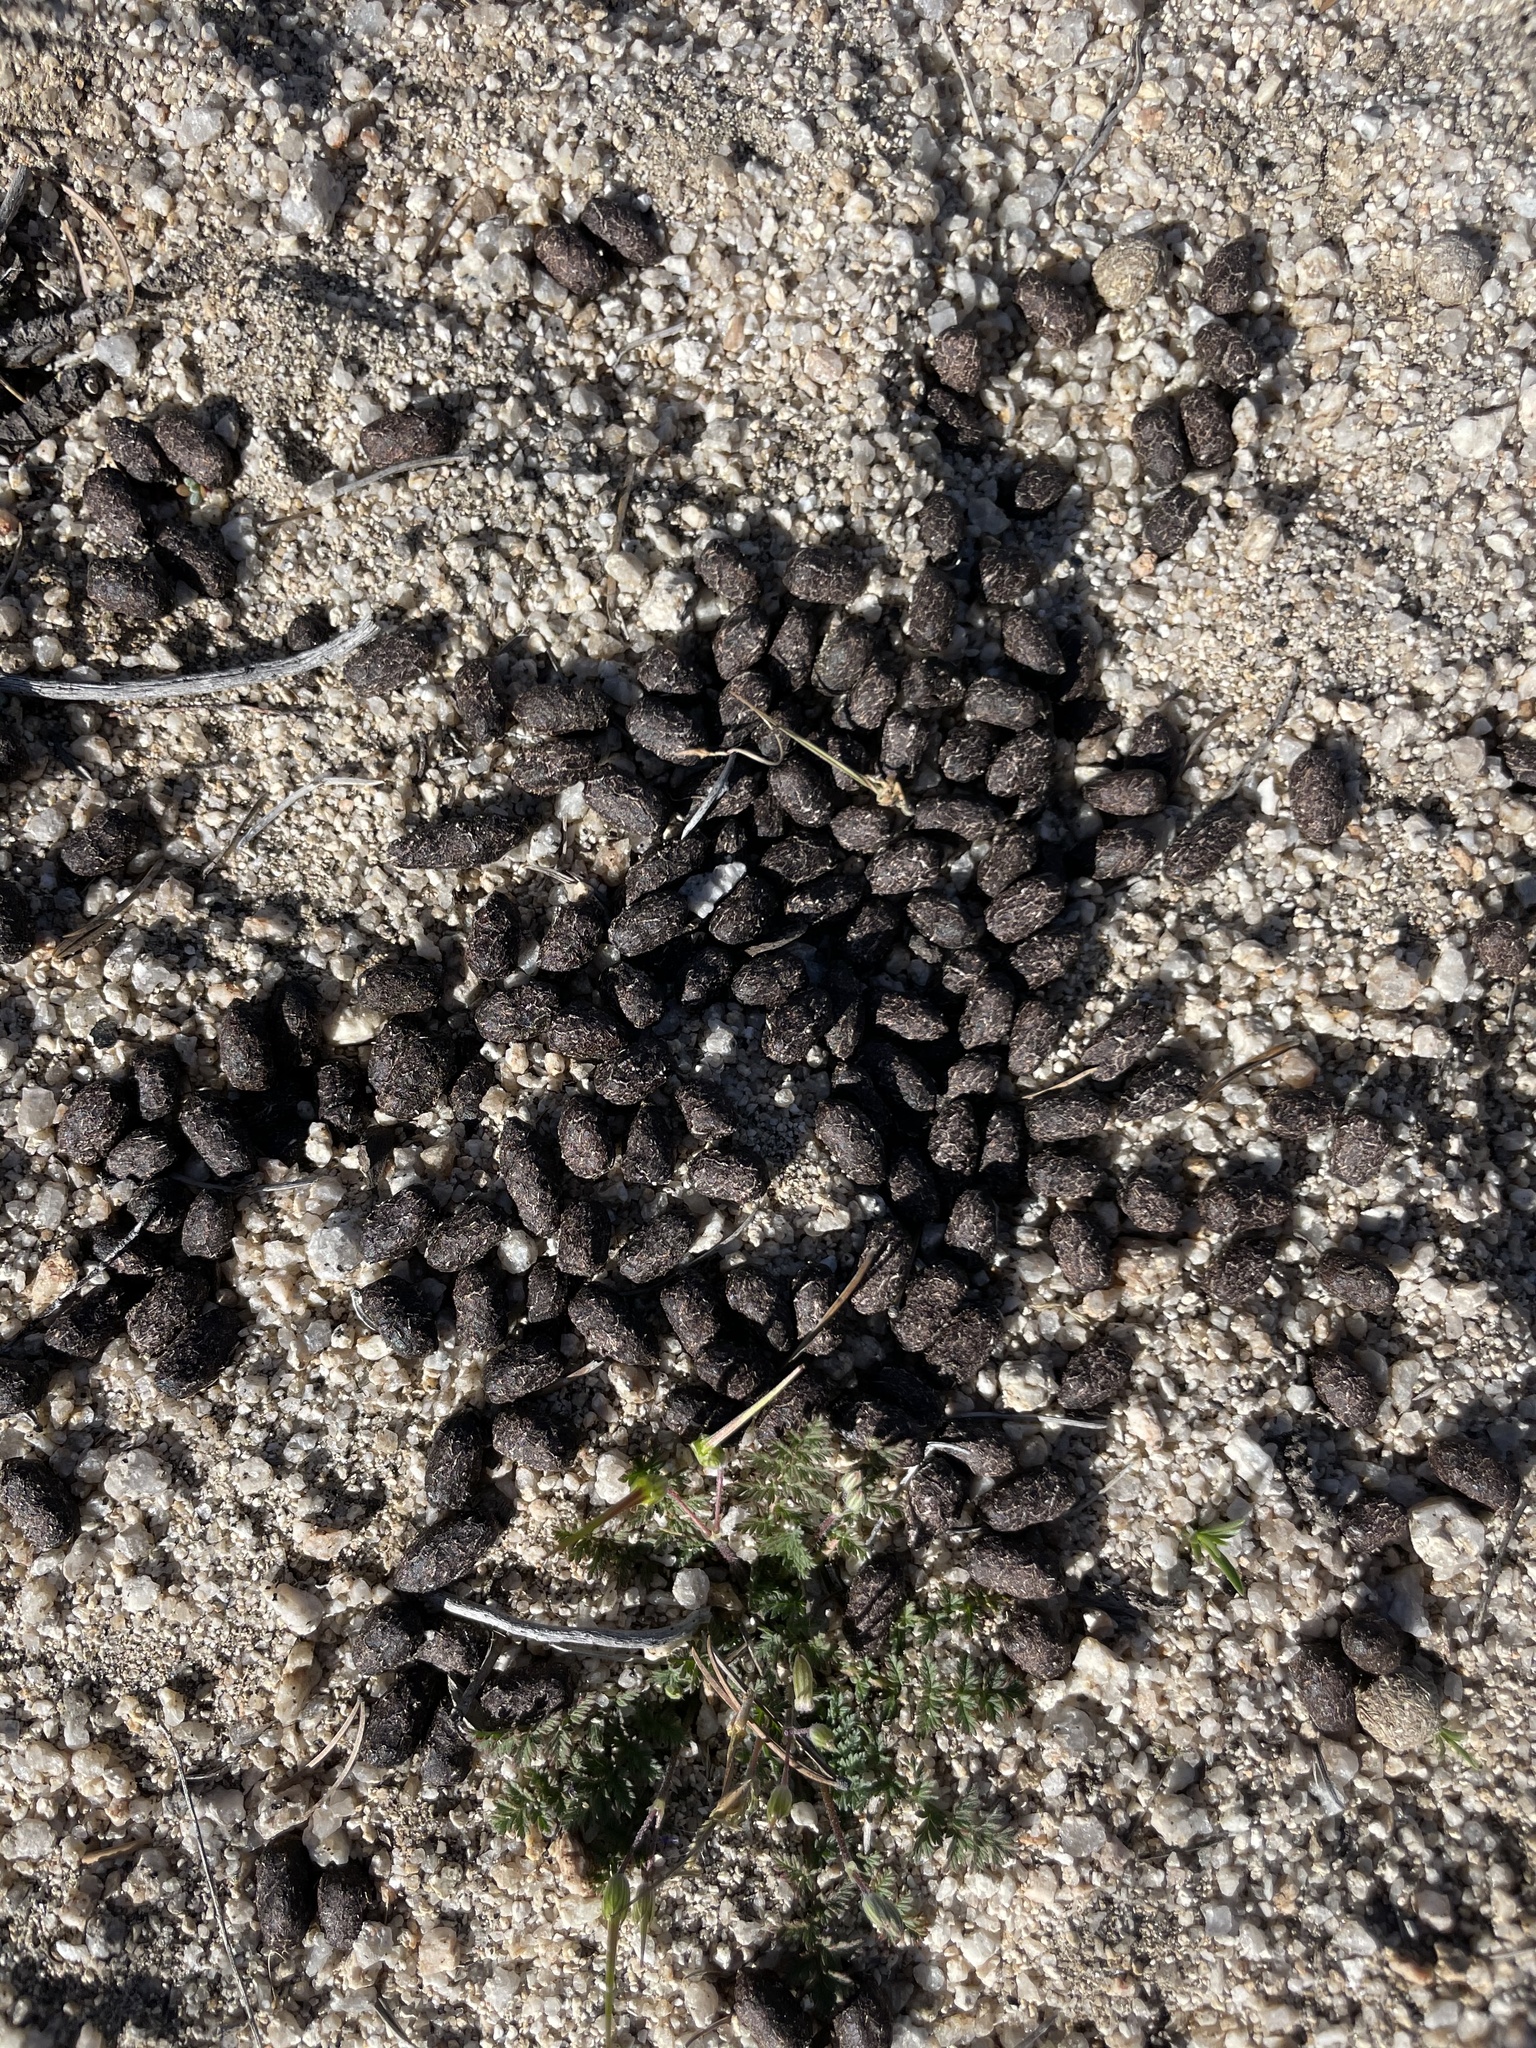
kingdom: Animalia
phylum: Chordata
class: Mammalia
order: Artiodactyla
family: Cervidae
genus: Odocoileus
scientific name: Odocoileus hemionus
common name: Mule deer
